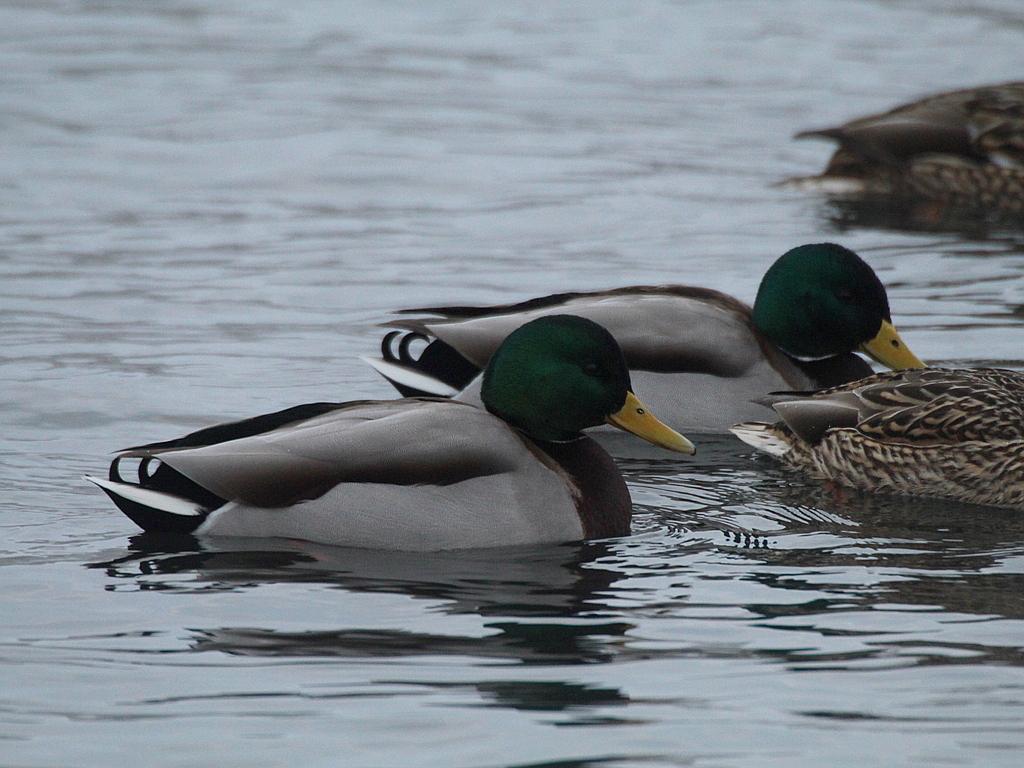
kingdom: Animalia
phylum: Chordata
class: Aves
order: Anseriformes
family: Anatidae
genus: Anas
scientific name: Anas platyrhynchos
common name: Mallard
